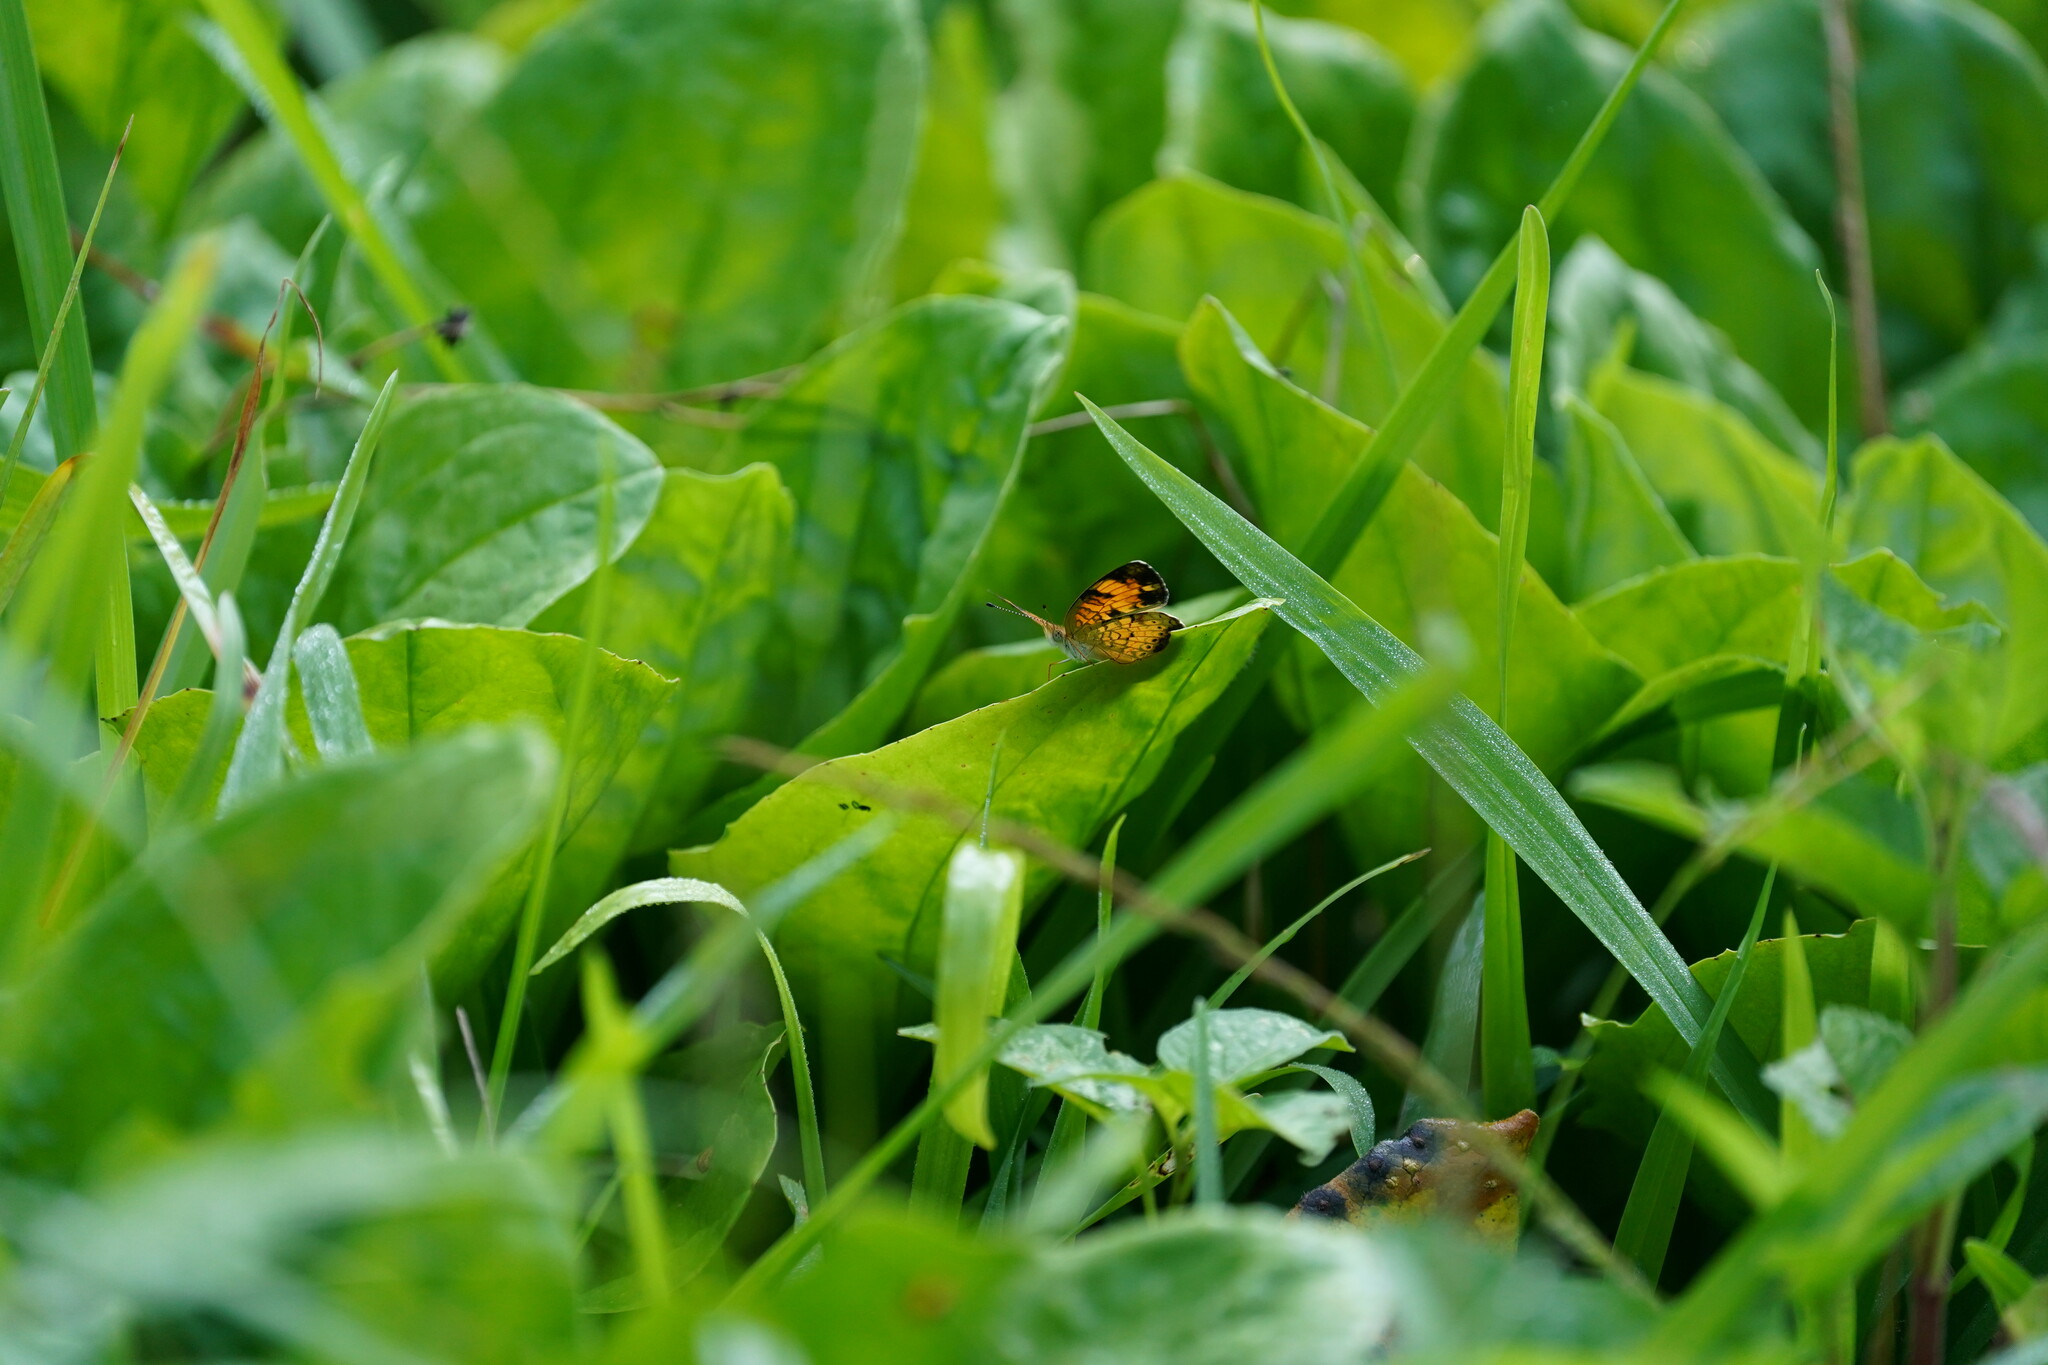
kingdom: Animalia
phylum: Arthropoda
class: Insecta
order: Lepidoptera
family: Nymphalidae
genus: Phyciodes
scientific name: Phyciodes tharos
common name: Pearl crescent
